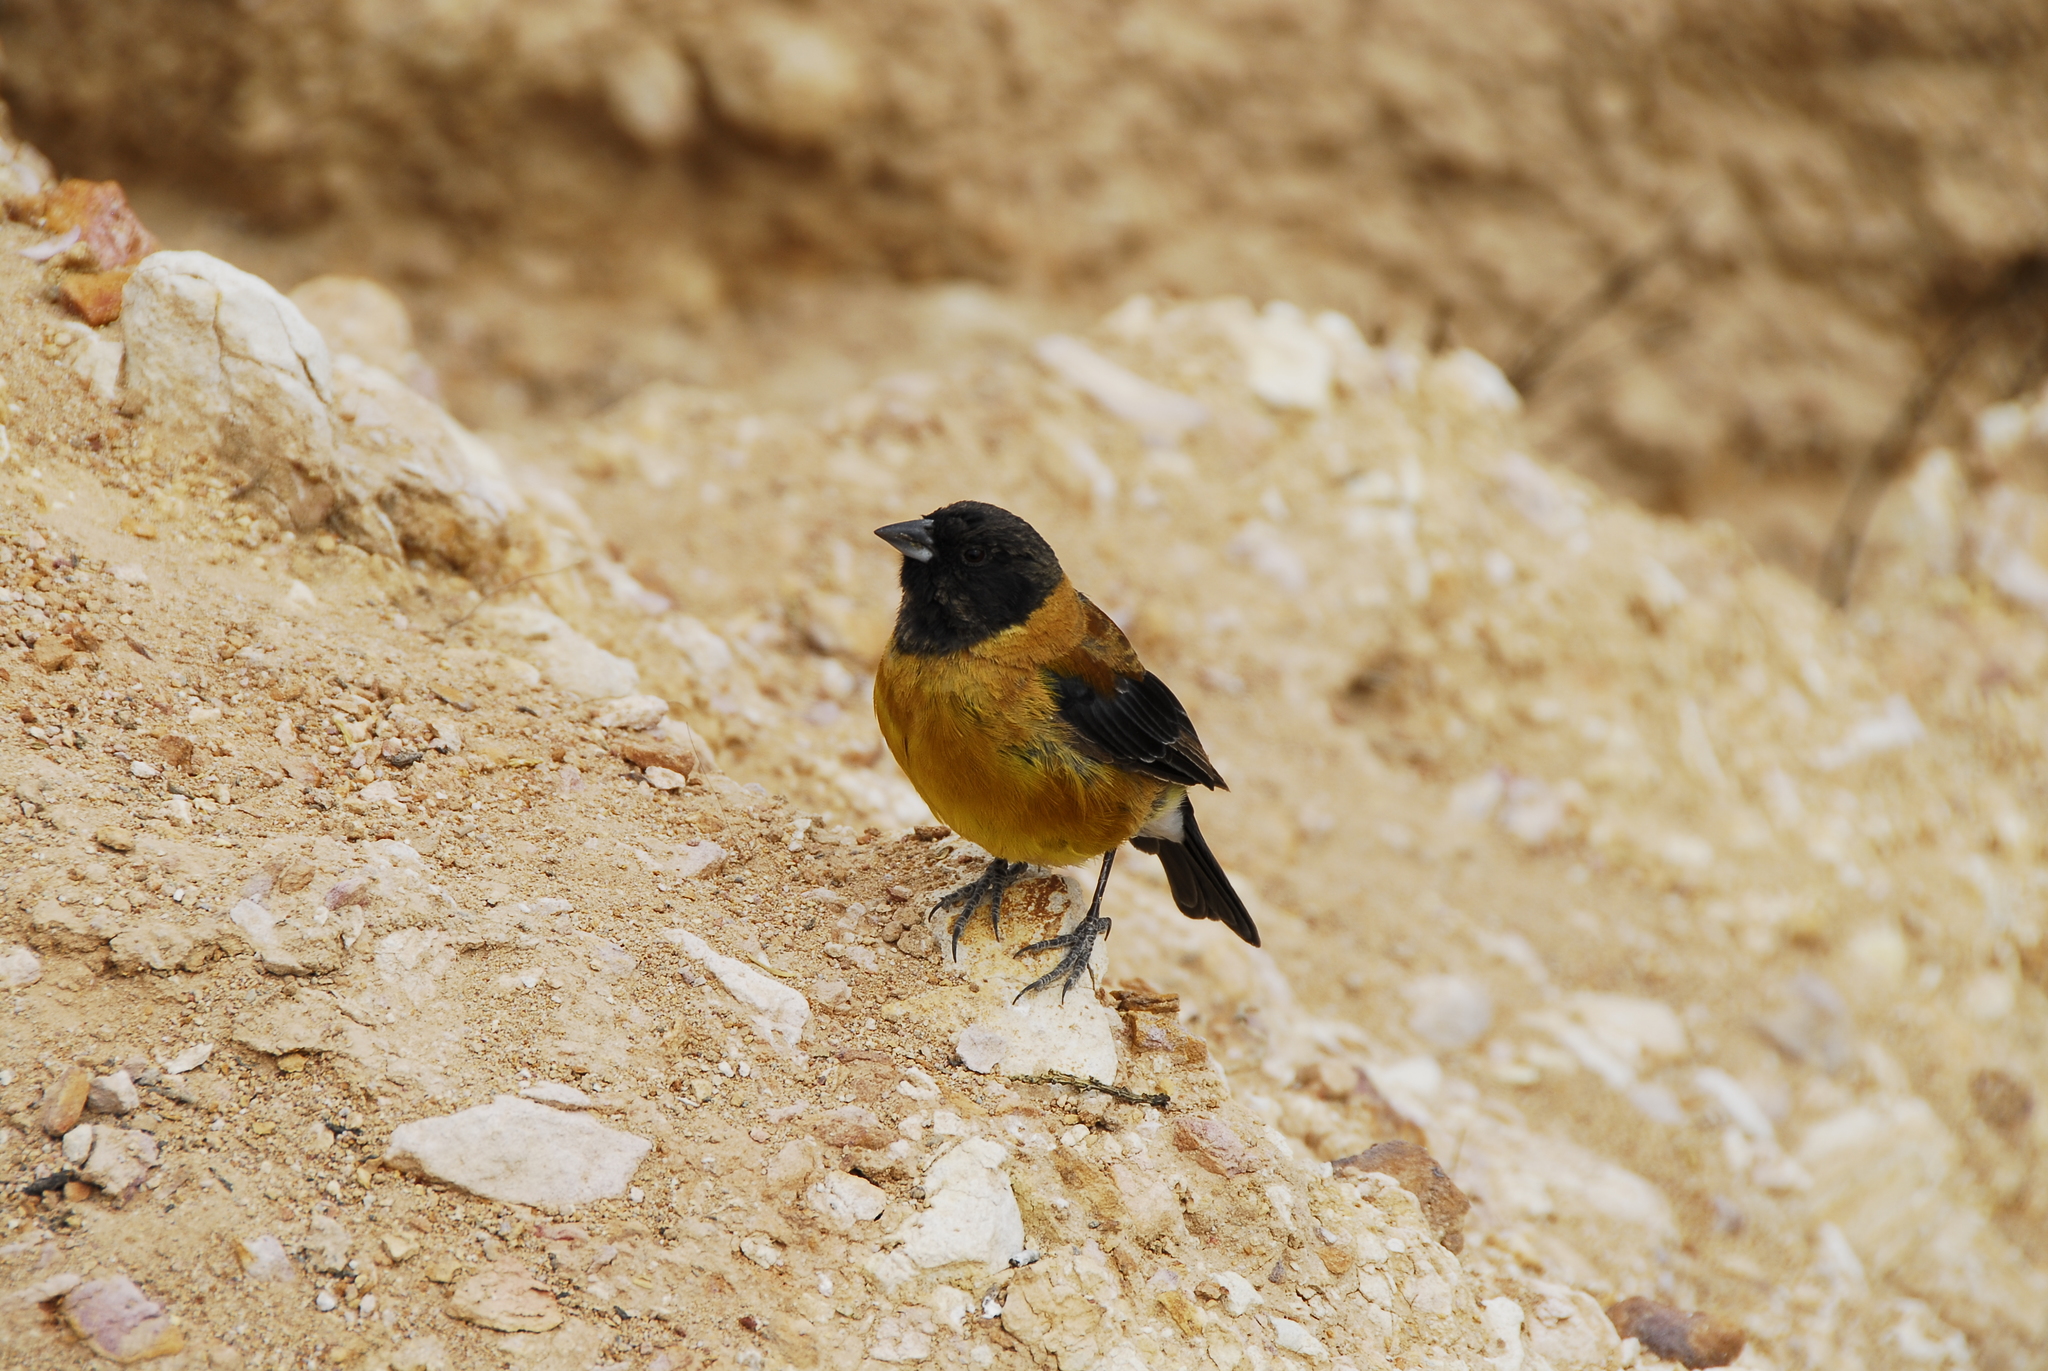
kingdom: Animalia
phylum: Chordata
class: Aves
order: Passeriformes
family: Thraupidae
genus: Phrygilus
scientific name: Phrygilus atriceps
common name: Black-hooded sierra finch
